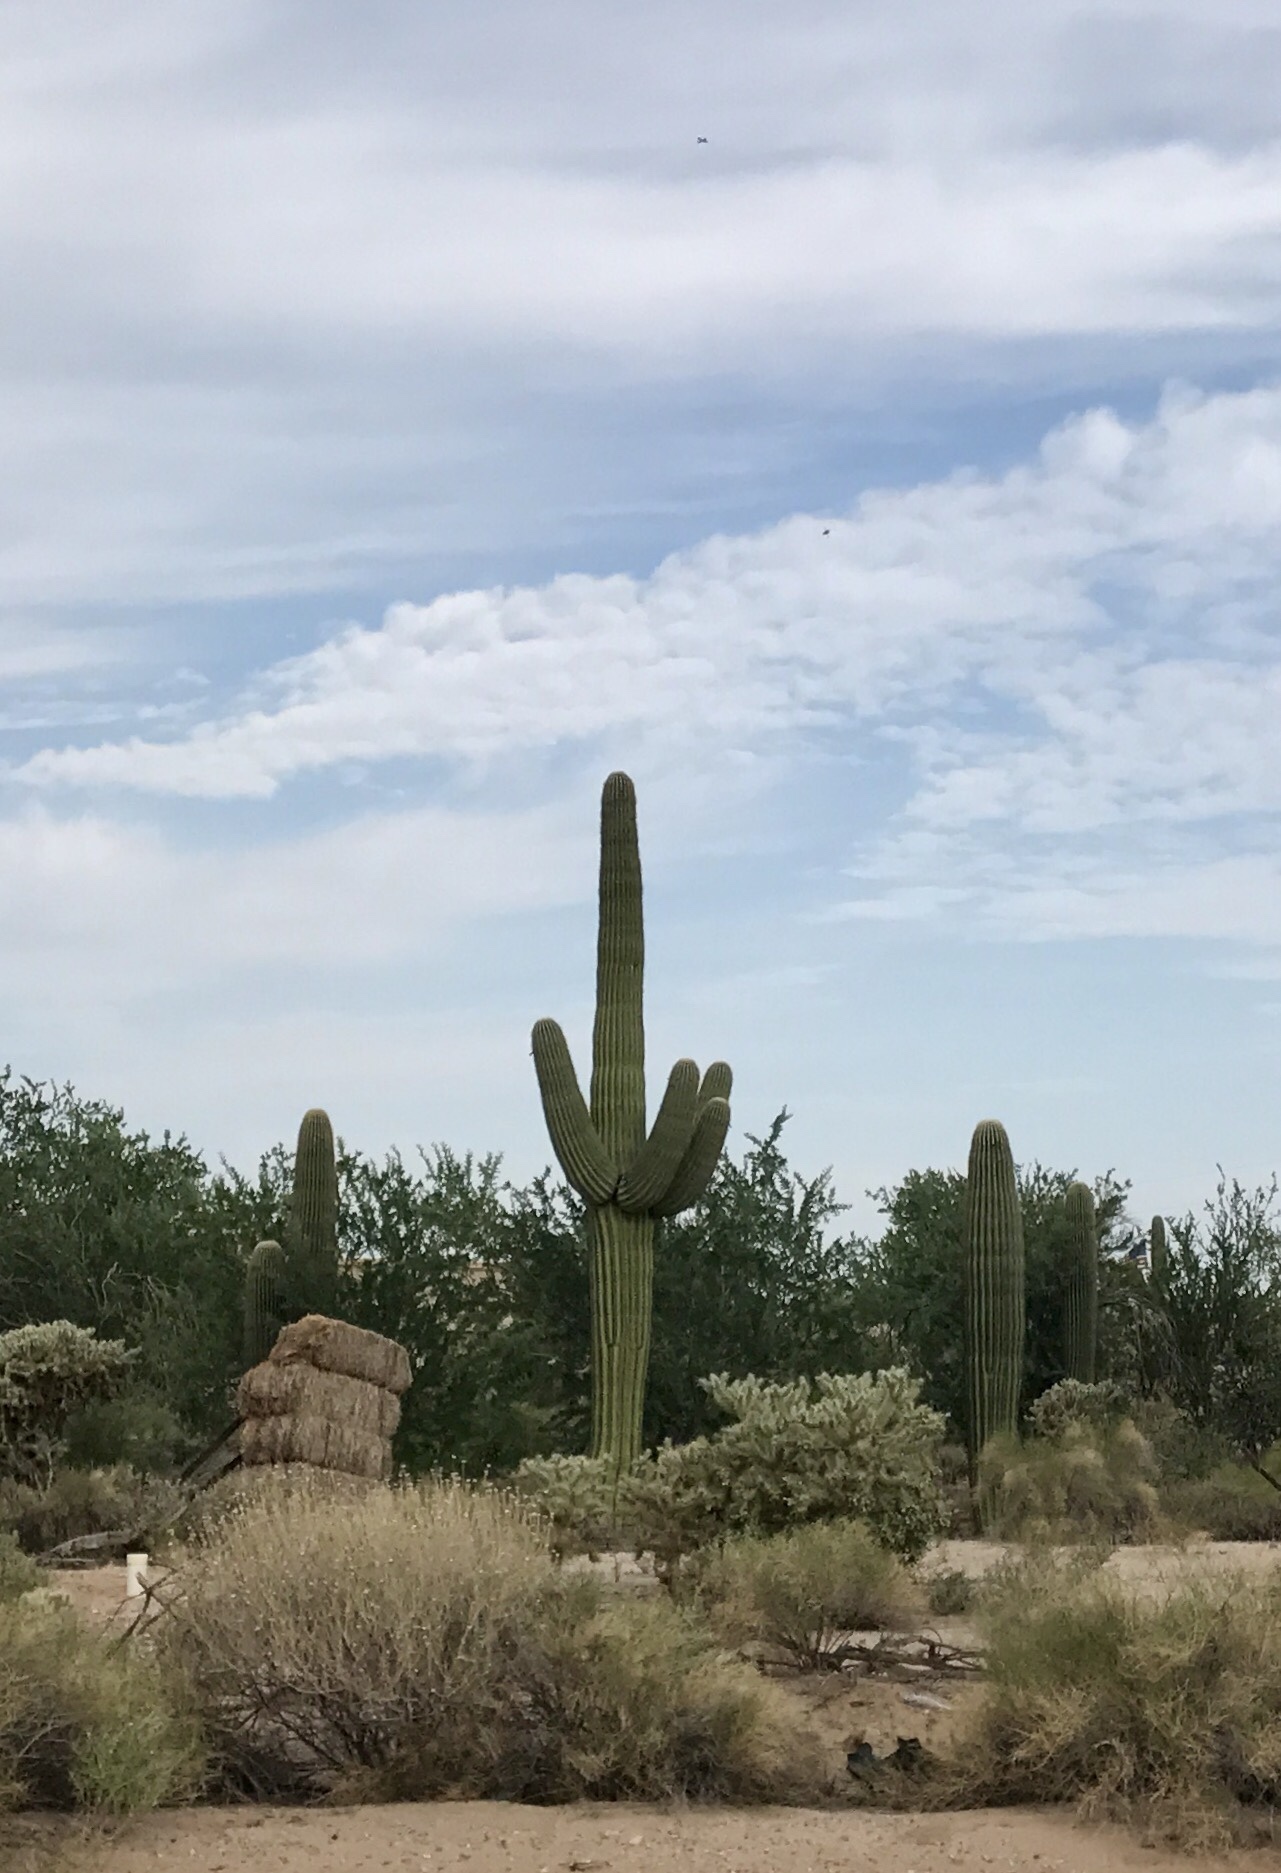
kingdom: Plantae
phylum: Tracheophyta
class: Magnoliopsida
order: Caryophyllales
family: Cactaceae
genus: Carnegiea
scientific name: Carnegiea gigantea
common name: Saguaro
